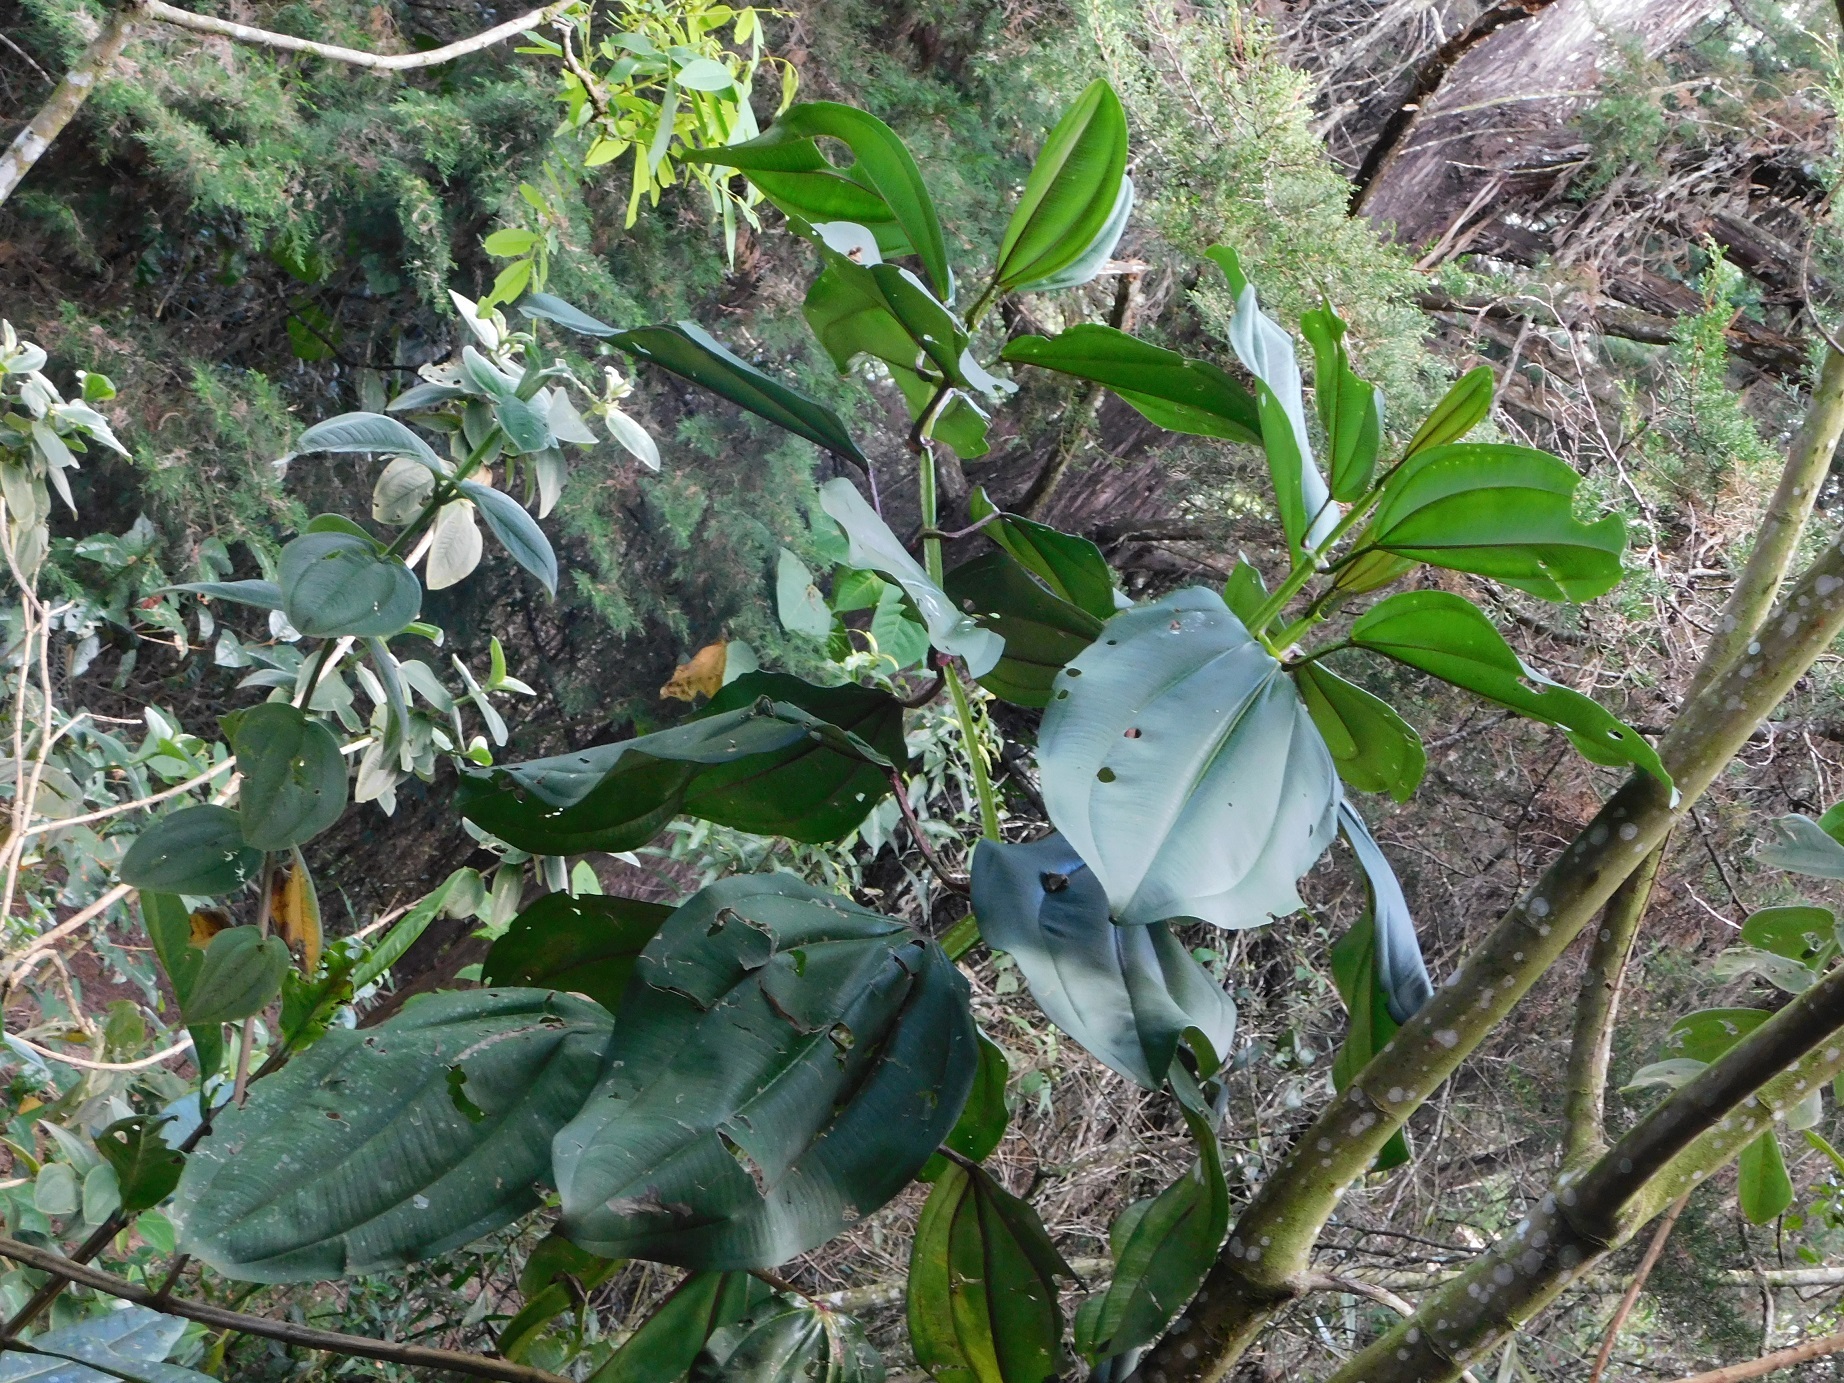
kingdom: Plantae
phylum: Tracheophyta
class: Magnoliopsida
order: Myrtales
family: Melastomataceae
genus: Meriania
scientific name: Meriania nobilis
